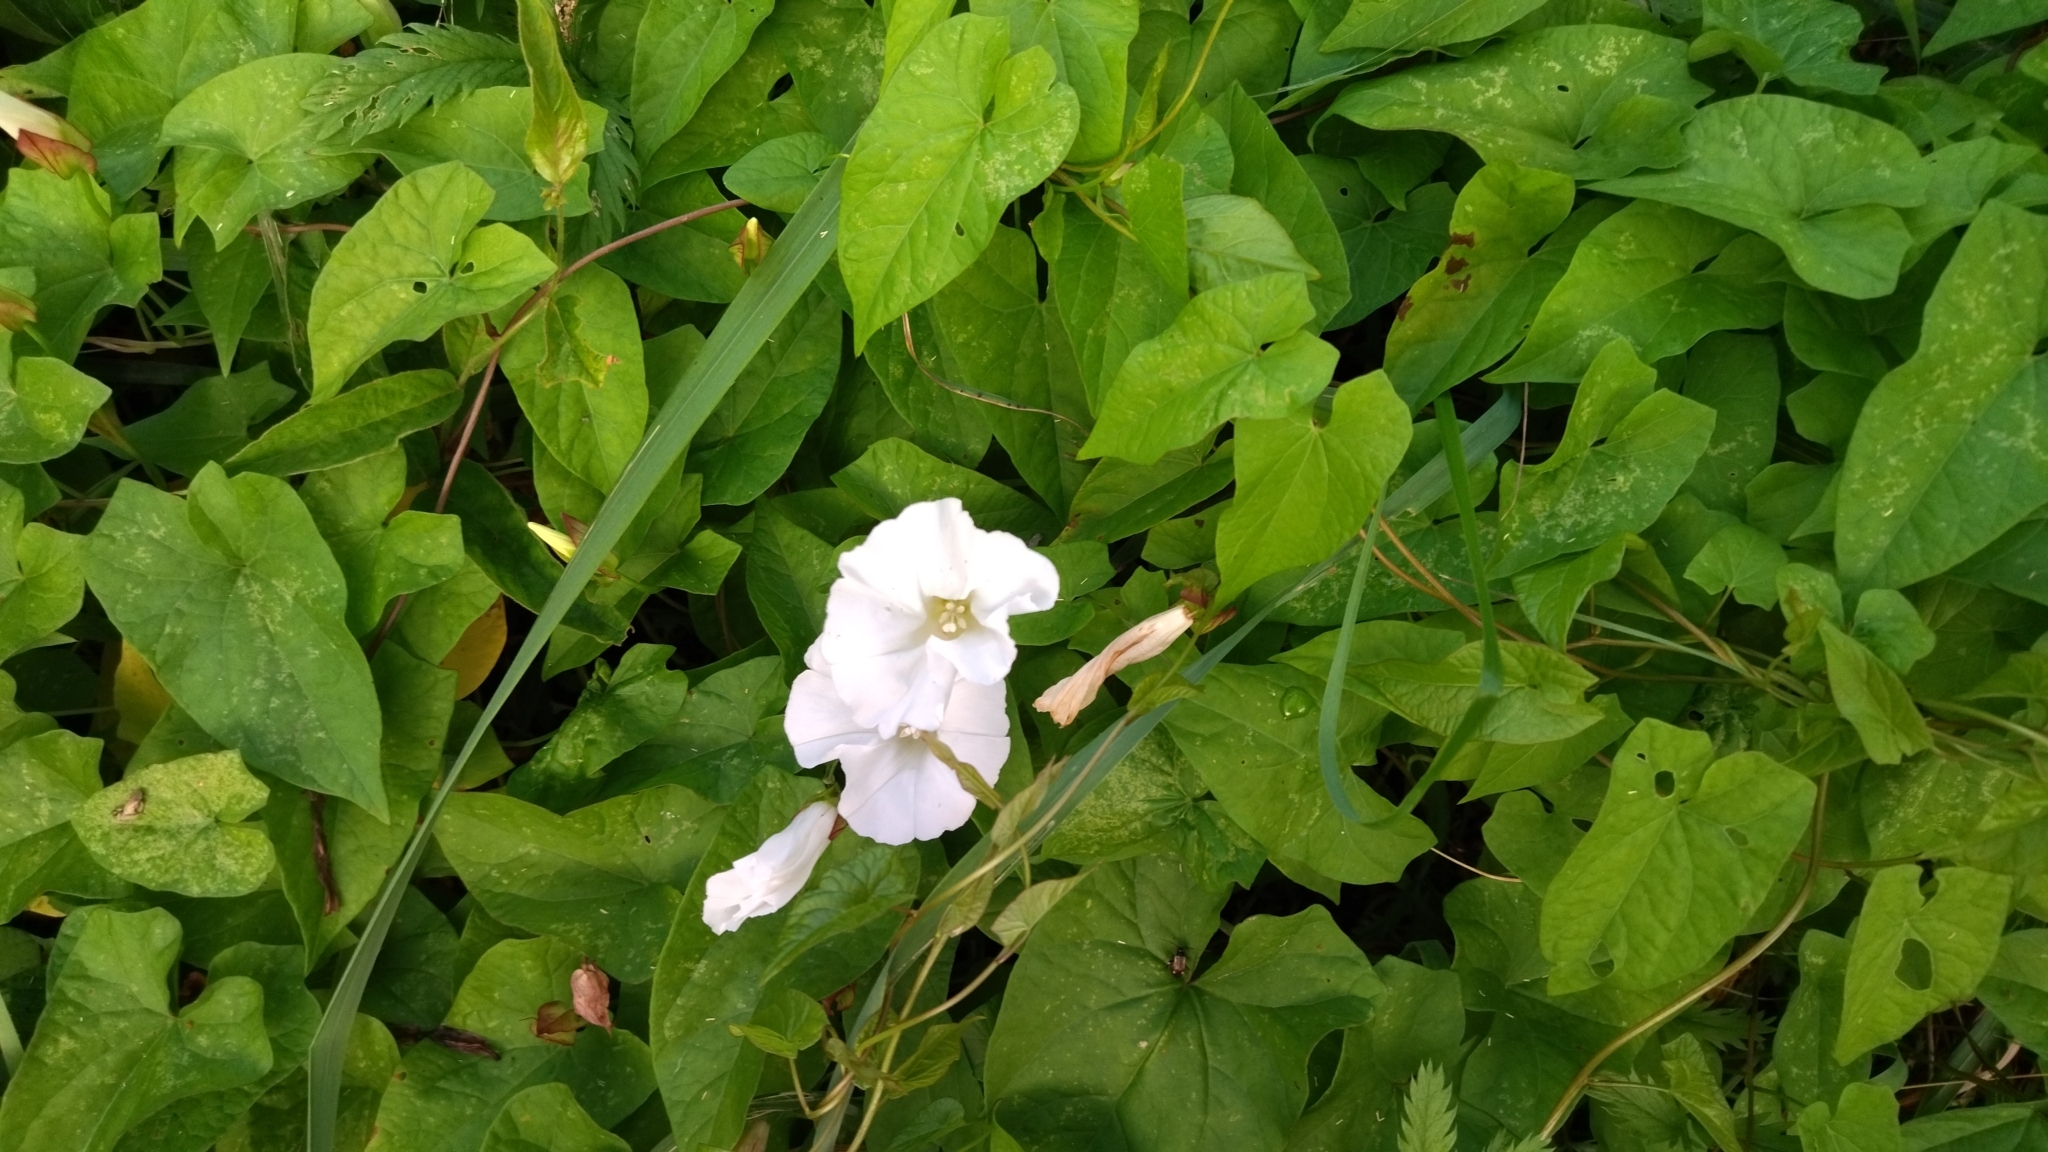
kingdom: Plantae
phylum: Tracheophyta
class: Magnoliopsida
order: Solanales
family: Convolvulaceae
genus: Calystegia
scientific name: Calystegia sepium
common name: Hedge bindweed
